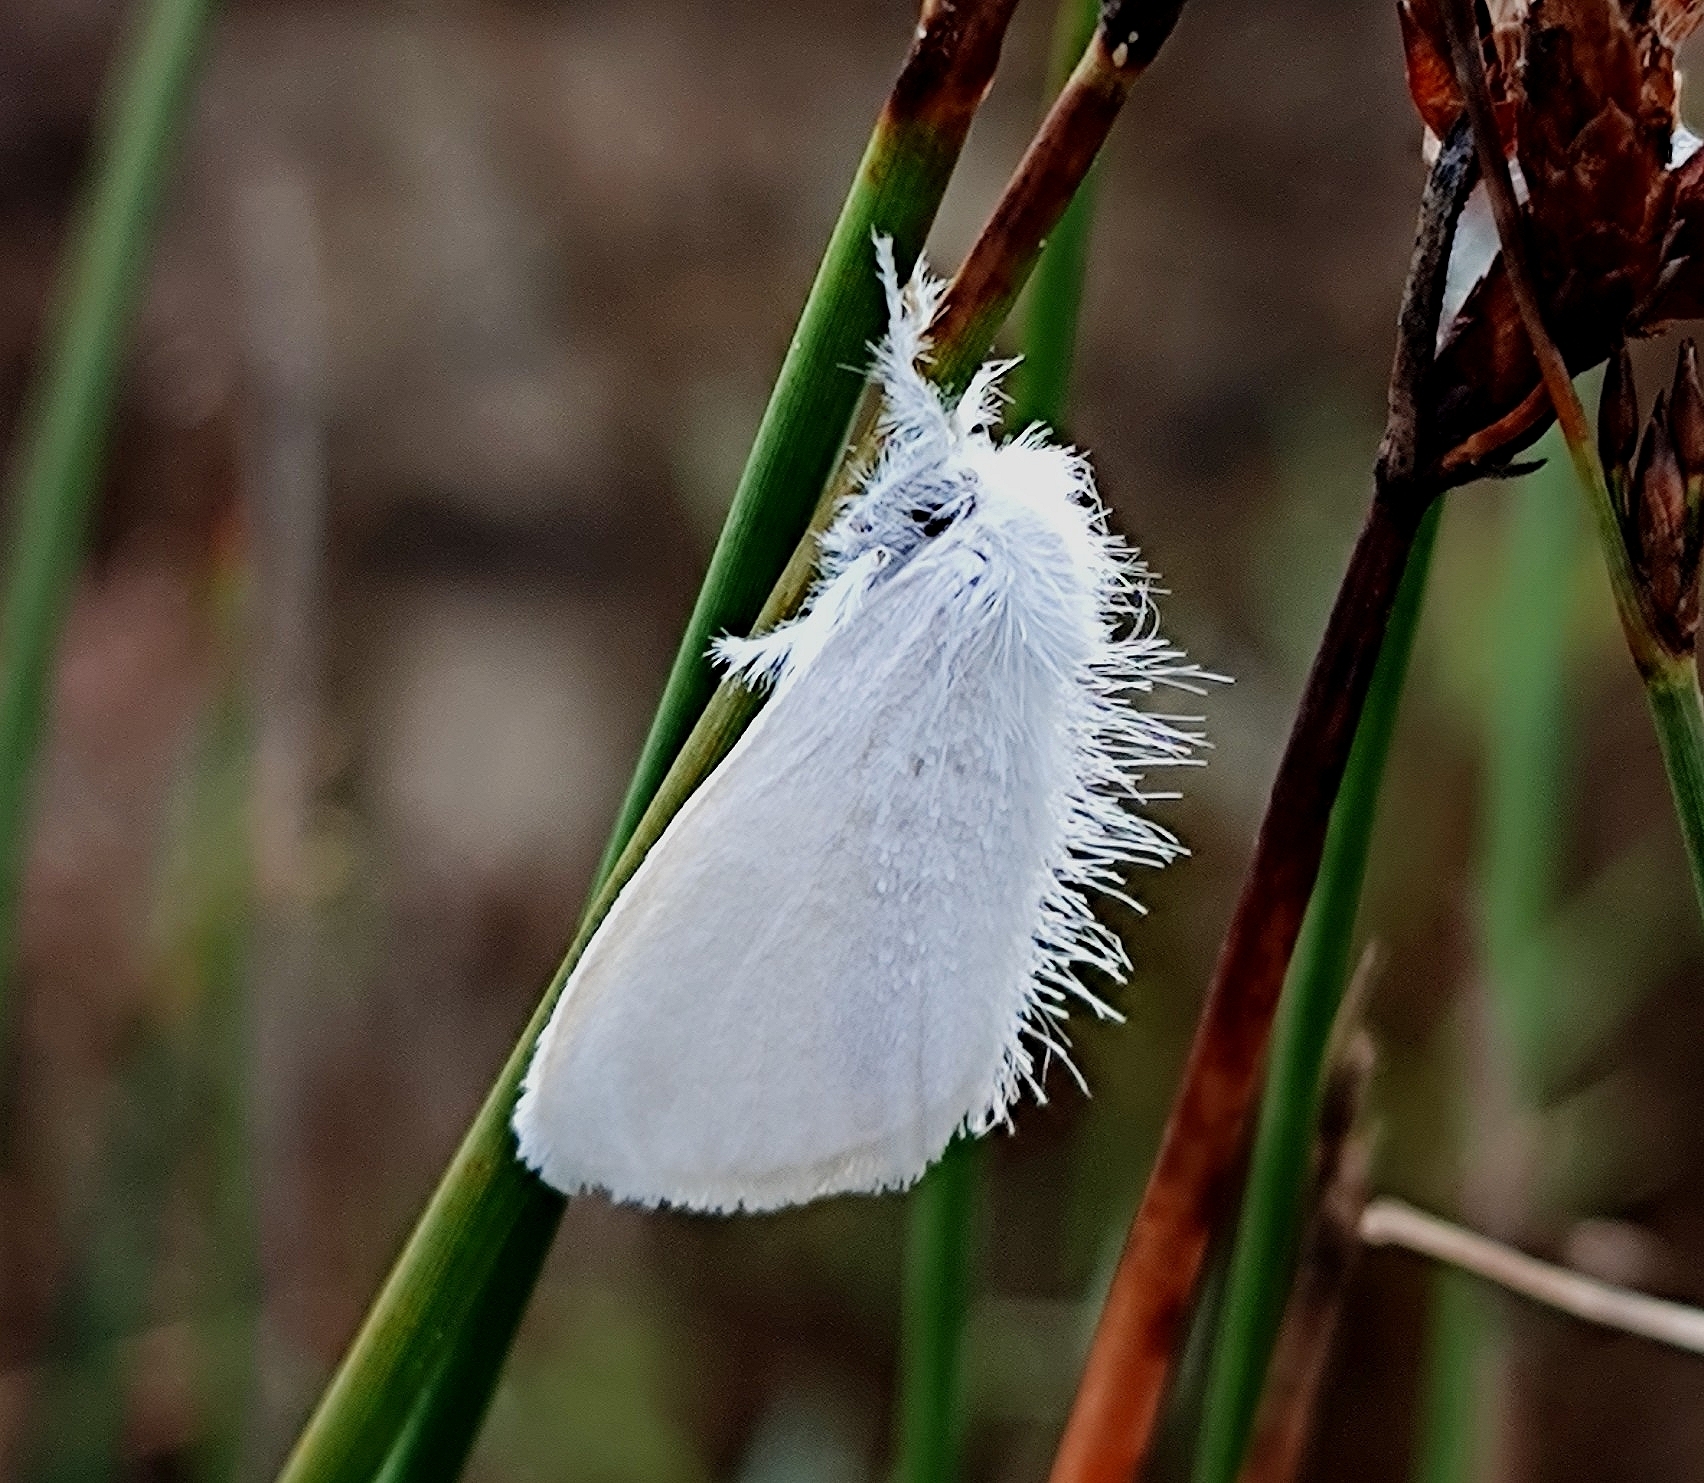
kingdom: Animalia
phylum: Arthropoda
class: Insecta
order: Lepidoptera
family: Erebidae
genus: Sphrageidus
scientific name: Sphrageidus similis
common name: Yellow-tail
